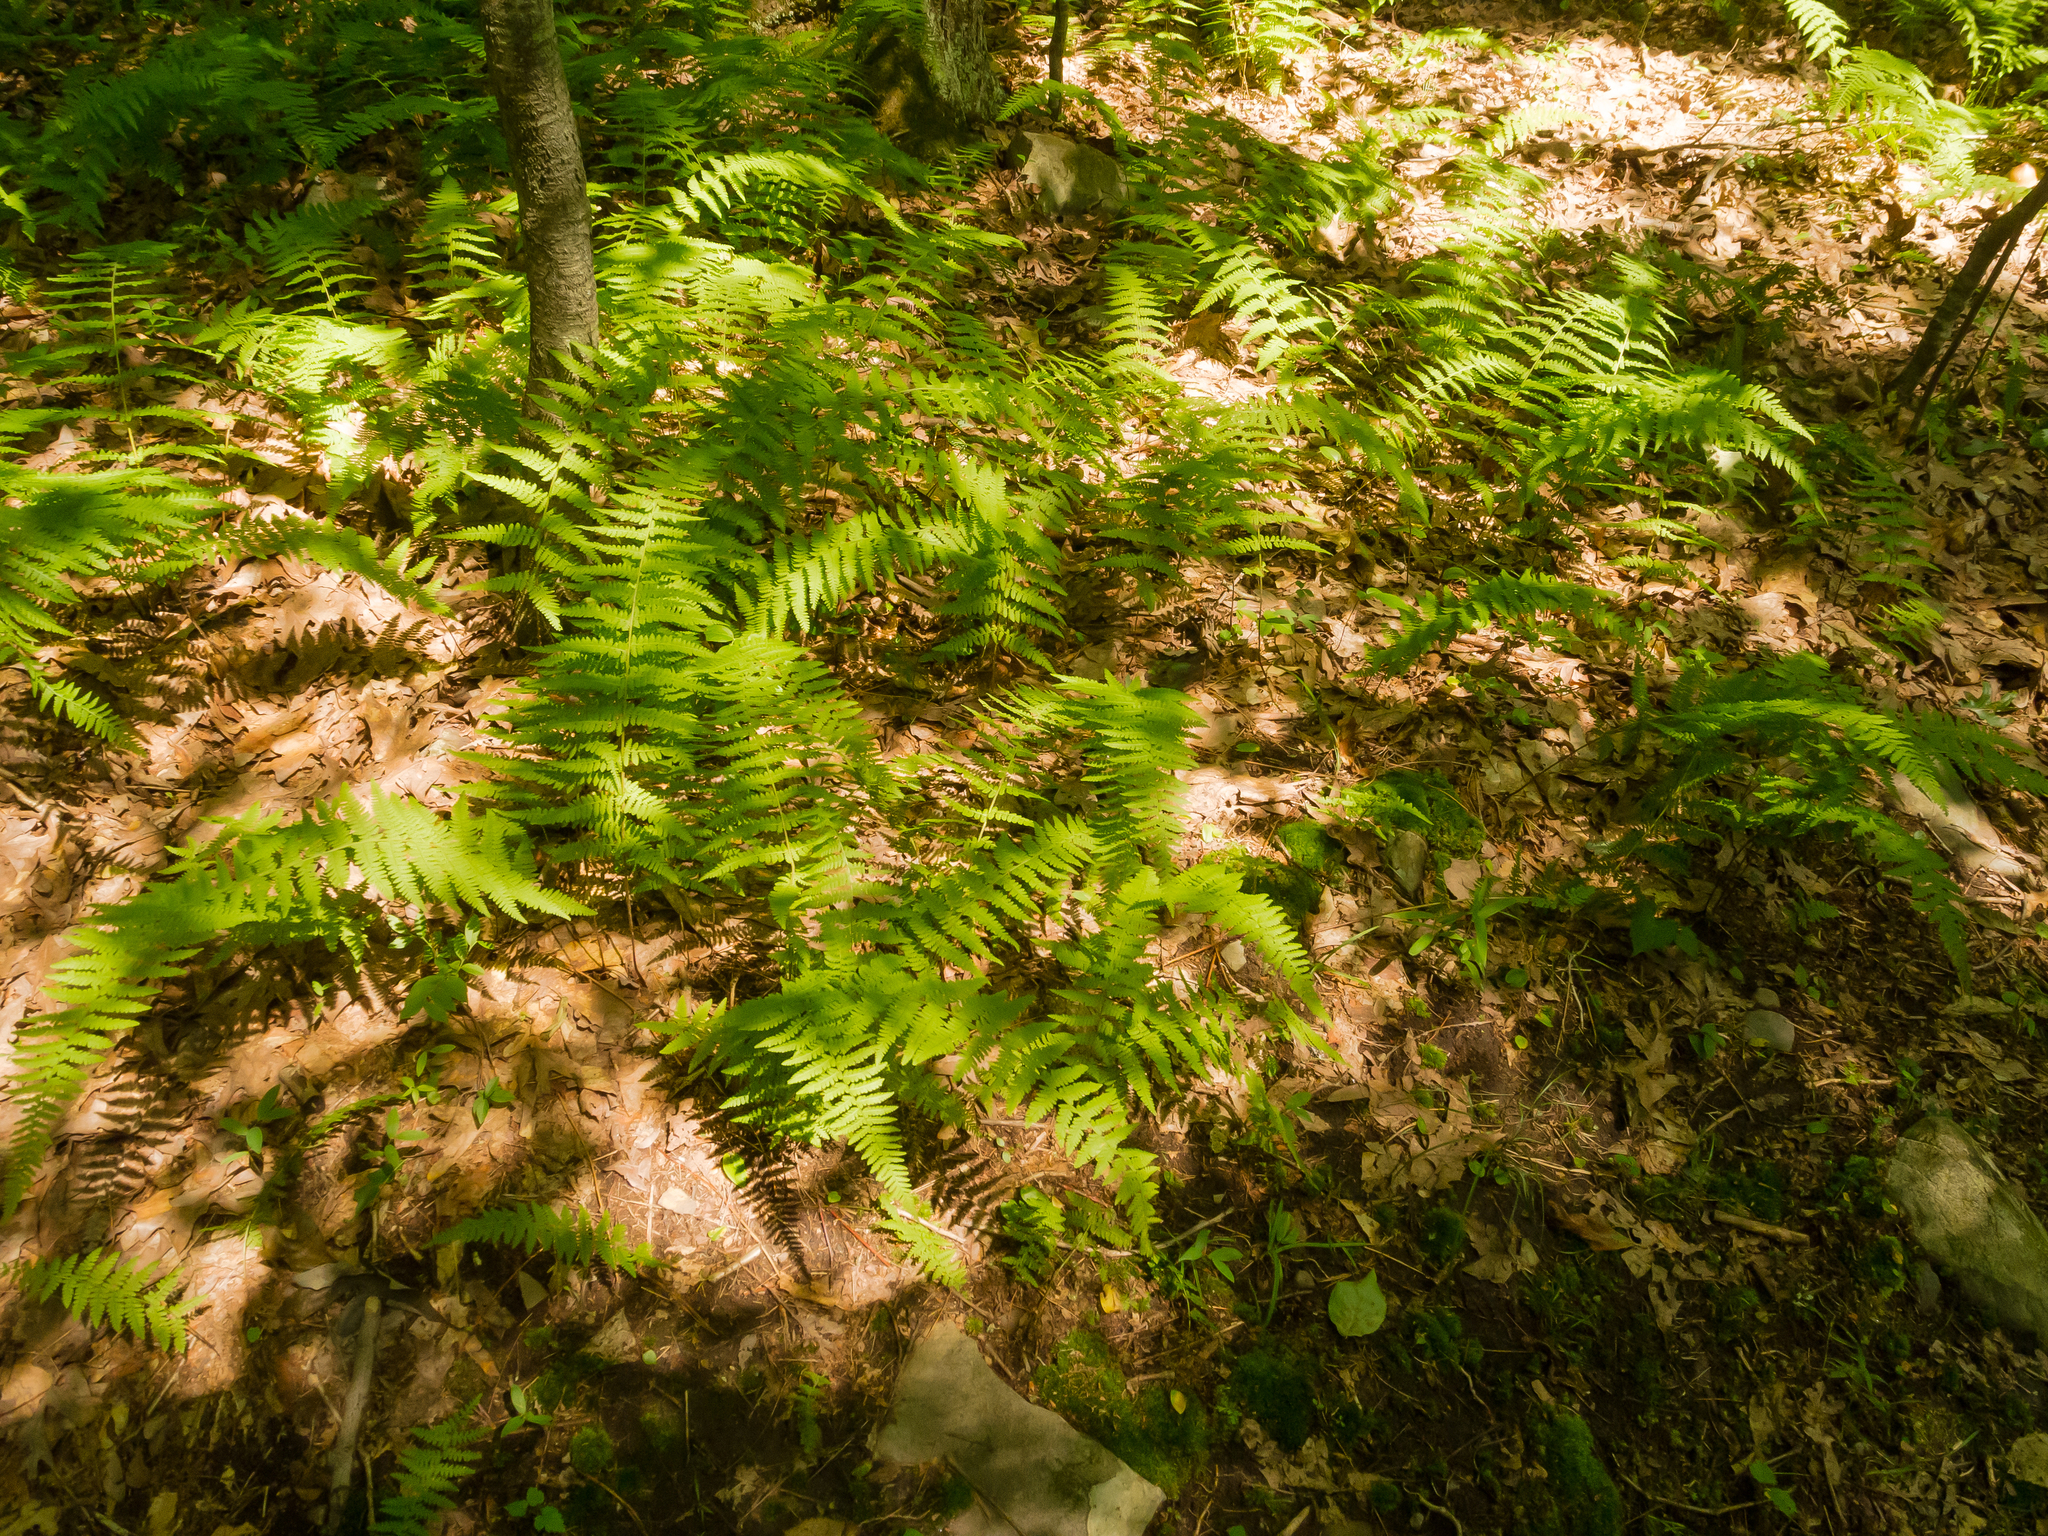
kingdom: Plantae
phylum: Tracheophyta
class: Polypodiopsida
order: Polypodiales
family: Dennstaedtiaceae
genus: Sitobolium
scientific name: Sitobolium punctilobum
